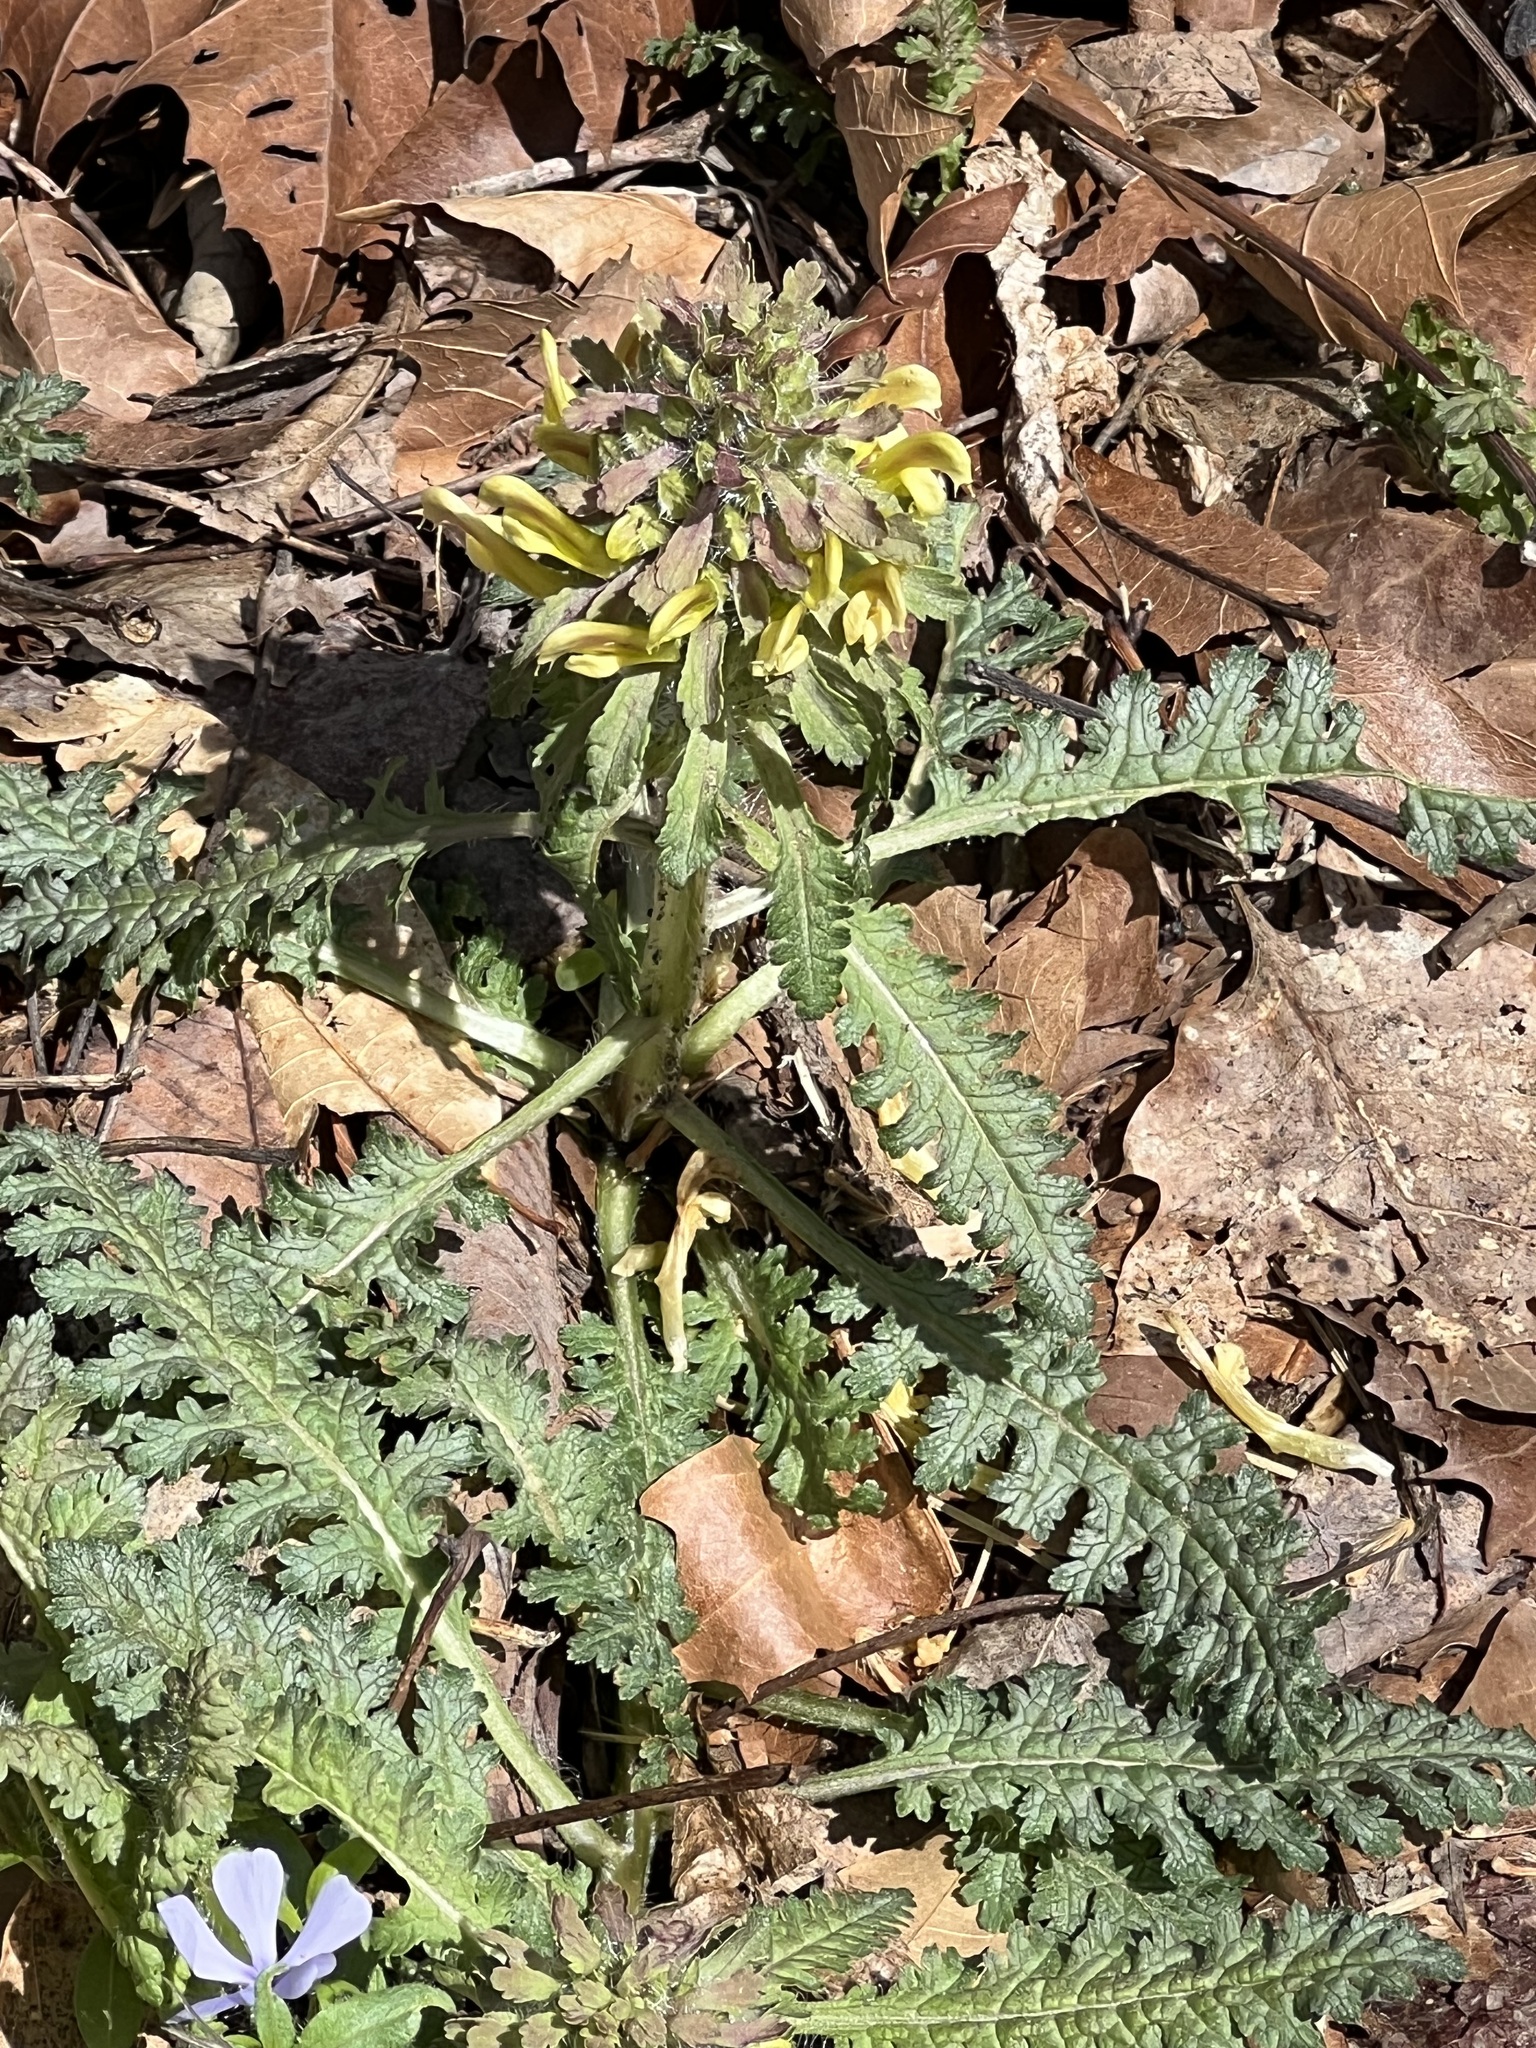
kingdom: Plantae
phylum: Tracheophyta
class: Magnoliopsida
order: Lamiales
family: Orobanchaceae
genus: Pedicularis
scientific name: Pedicularis canadensis
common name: Early lousewort
